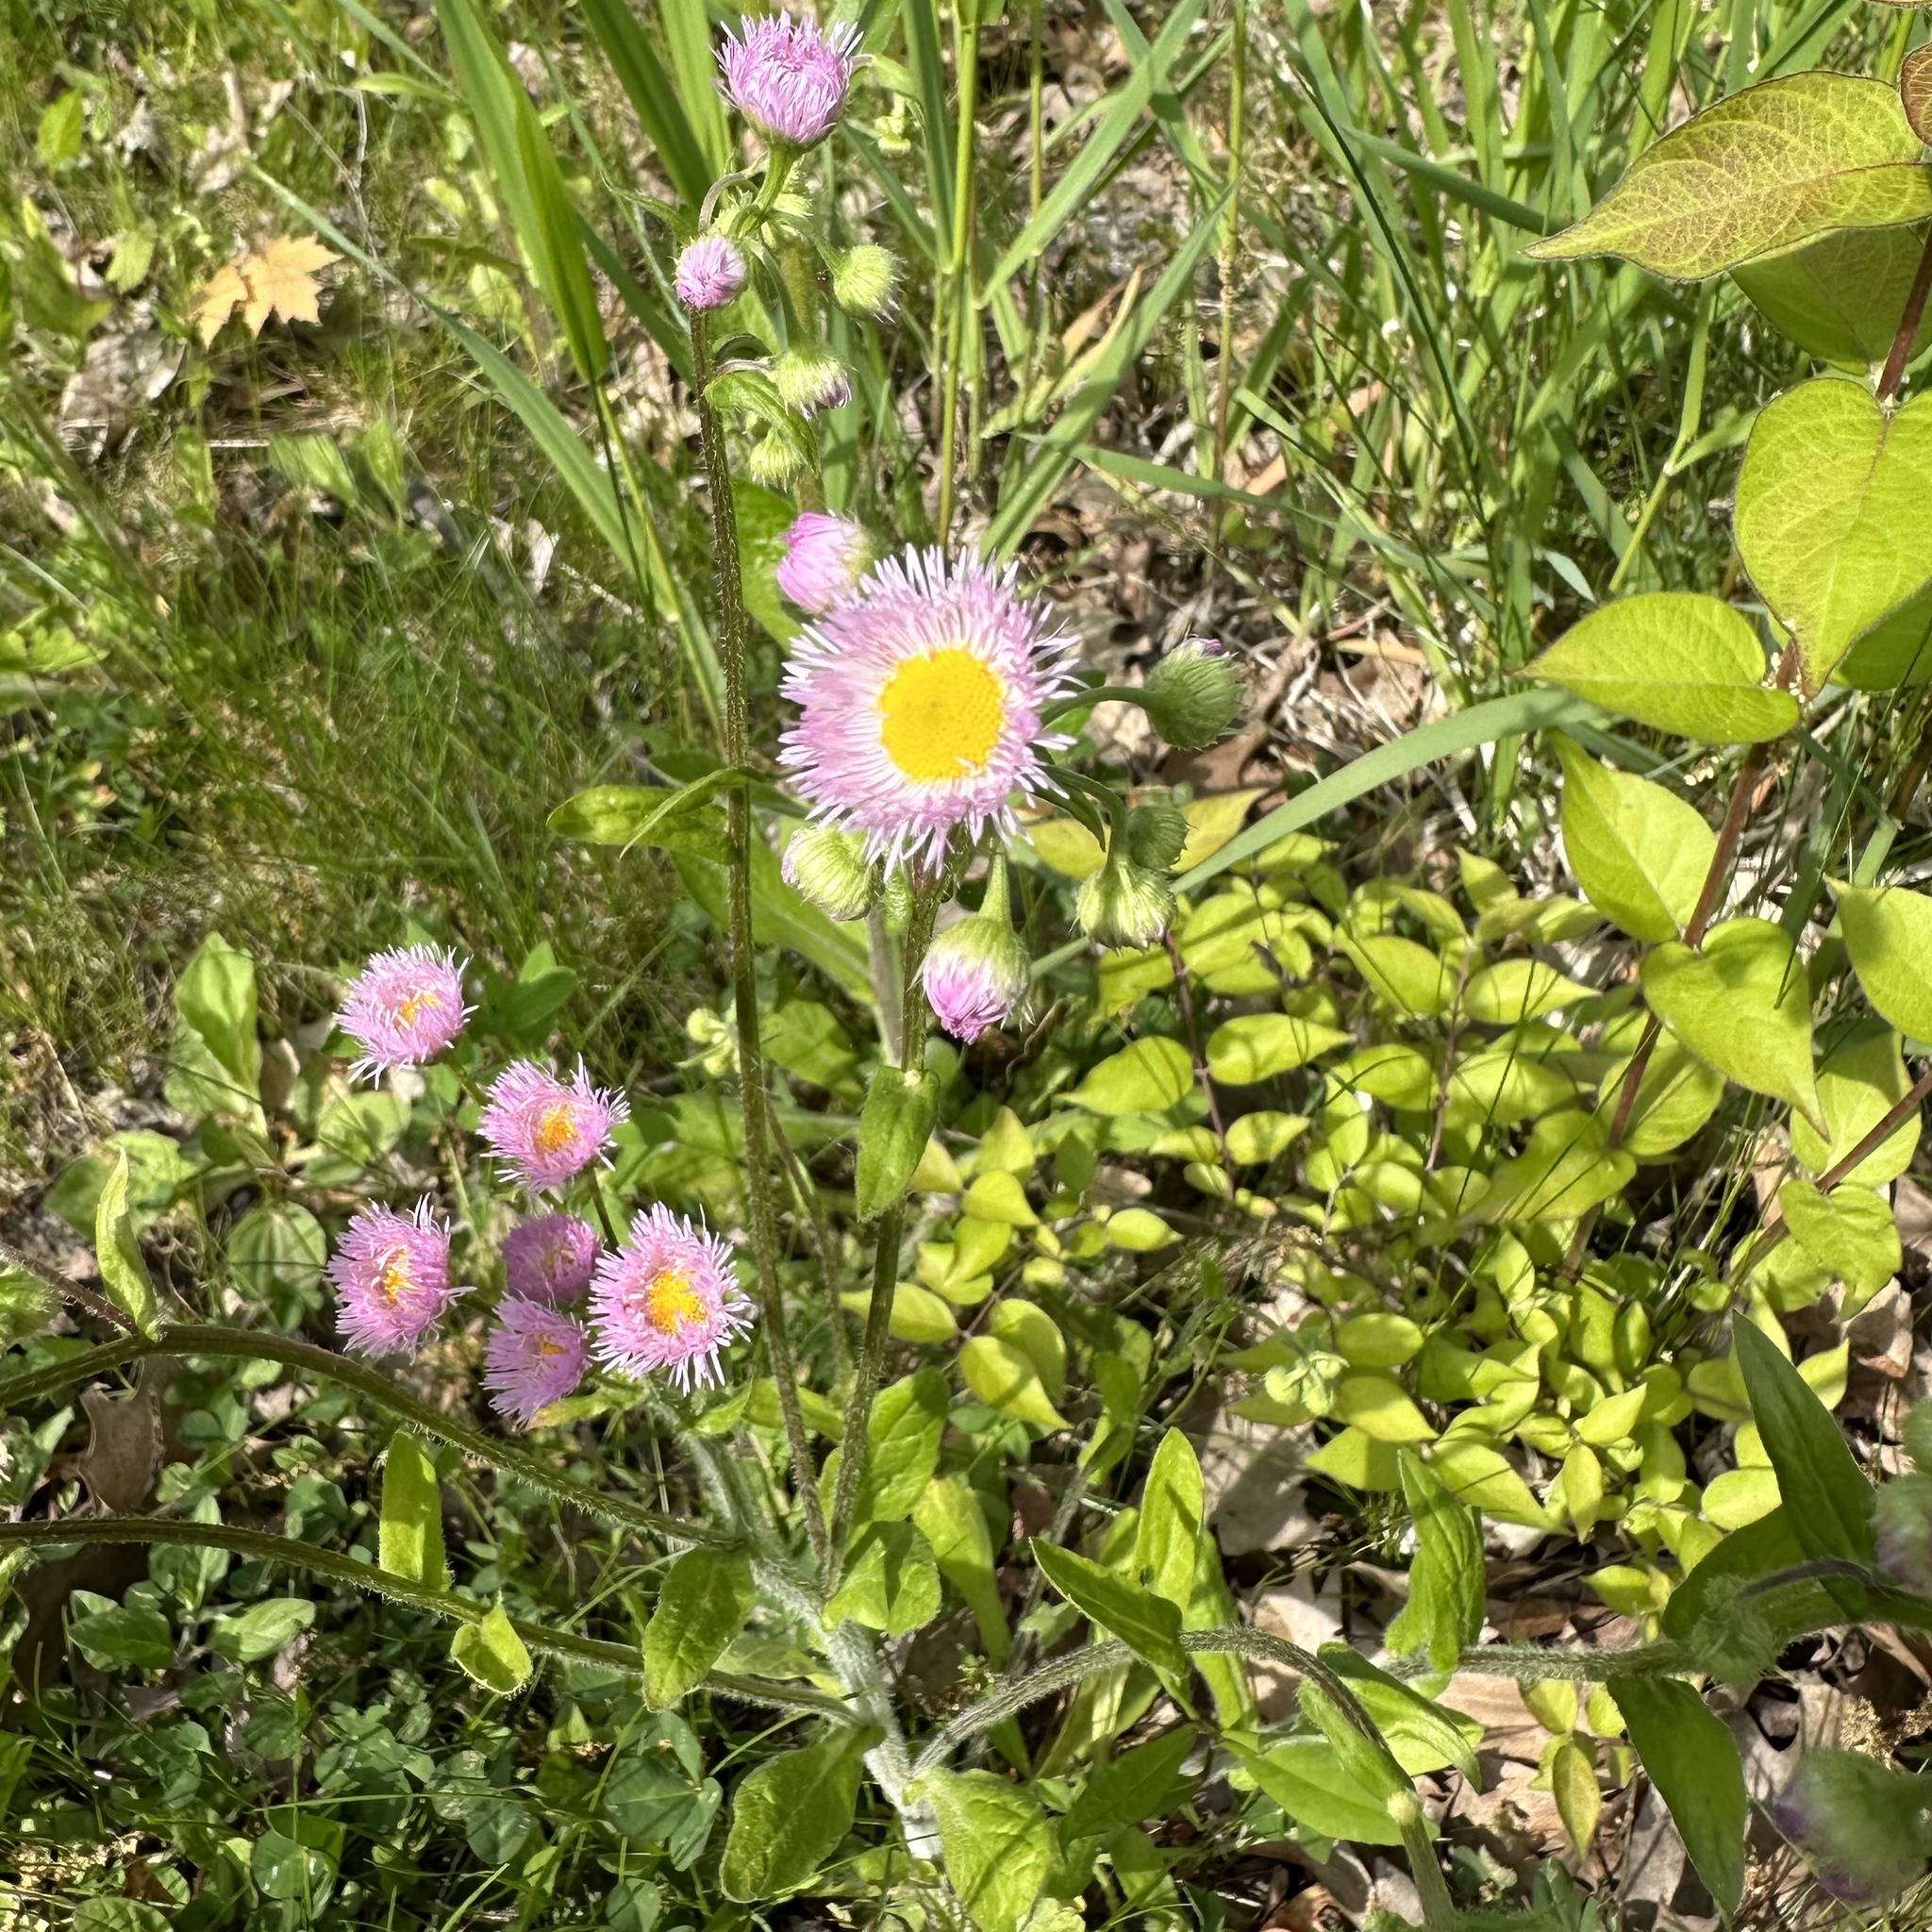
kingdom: Plantae
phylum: Tracheophyta
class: Magnoliopsida
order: Asterales
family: Asteraceae
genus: Erigeron
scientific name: Erigeron philadelphicus
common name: Robin's-plantain
